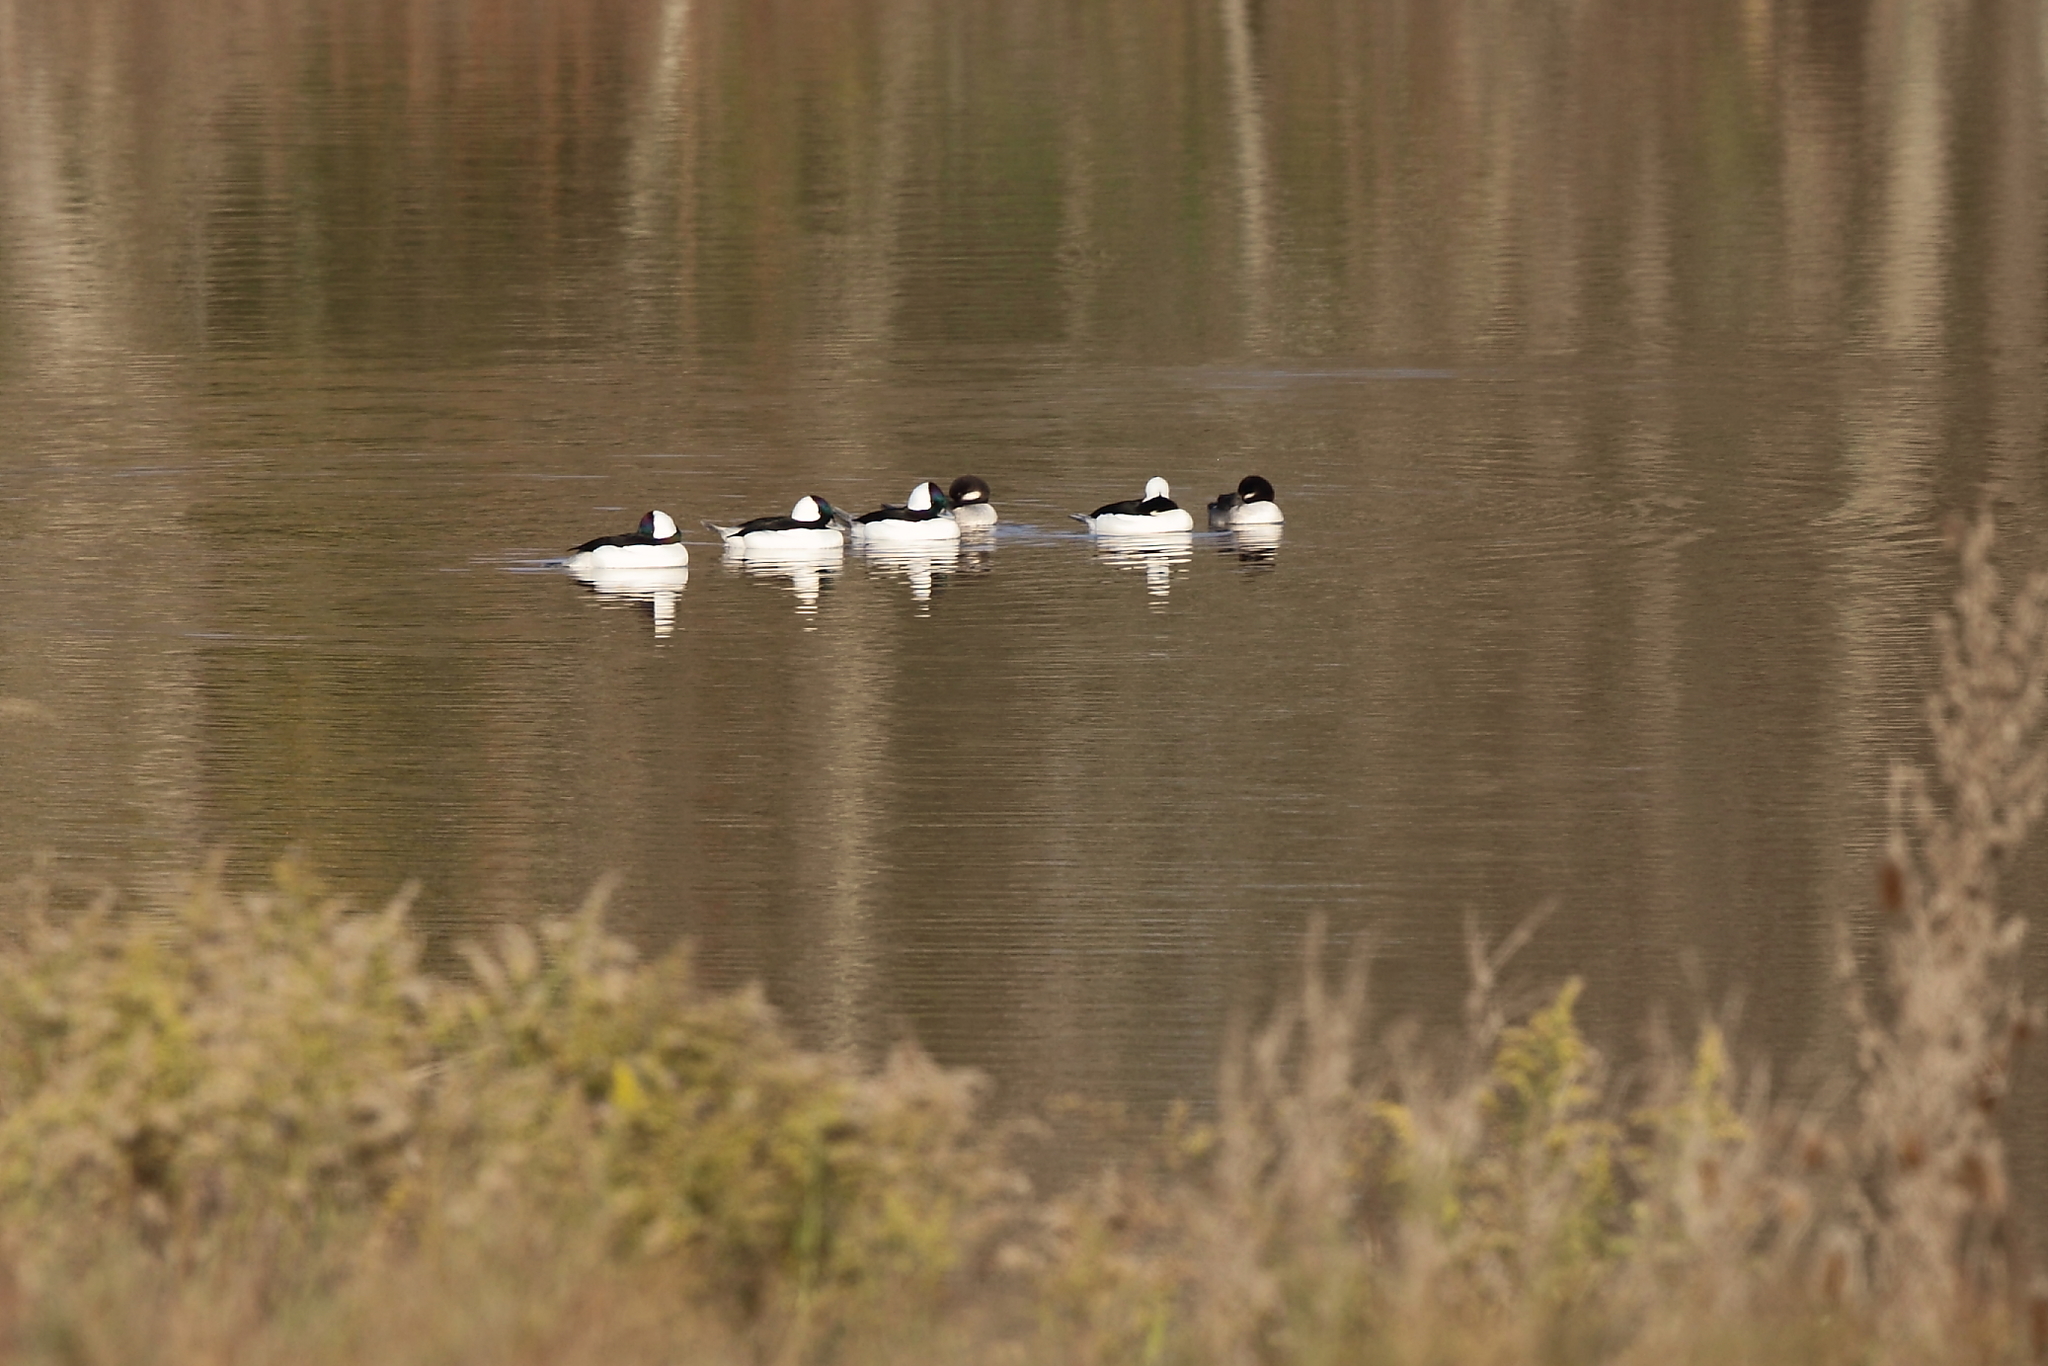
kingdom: Animalia
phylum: Chordata
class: Aves
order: Anseriformes
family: Anatidae
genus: Bucephala
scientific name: Bucephala albeola
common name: Bufflehead
